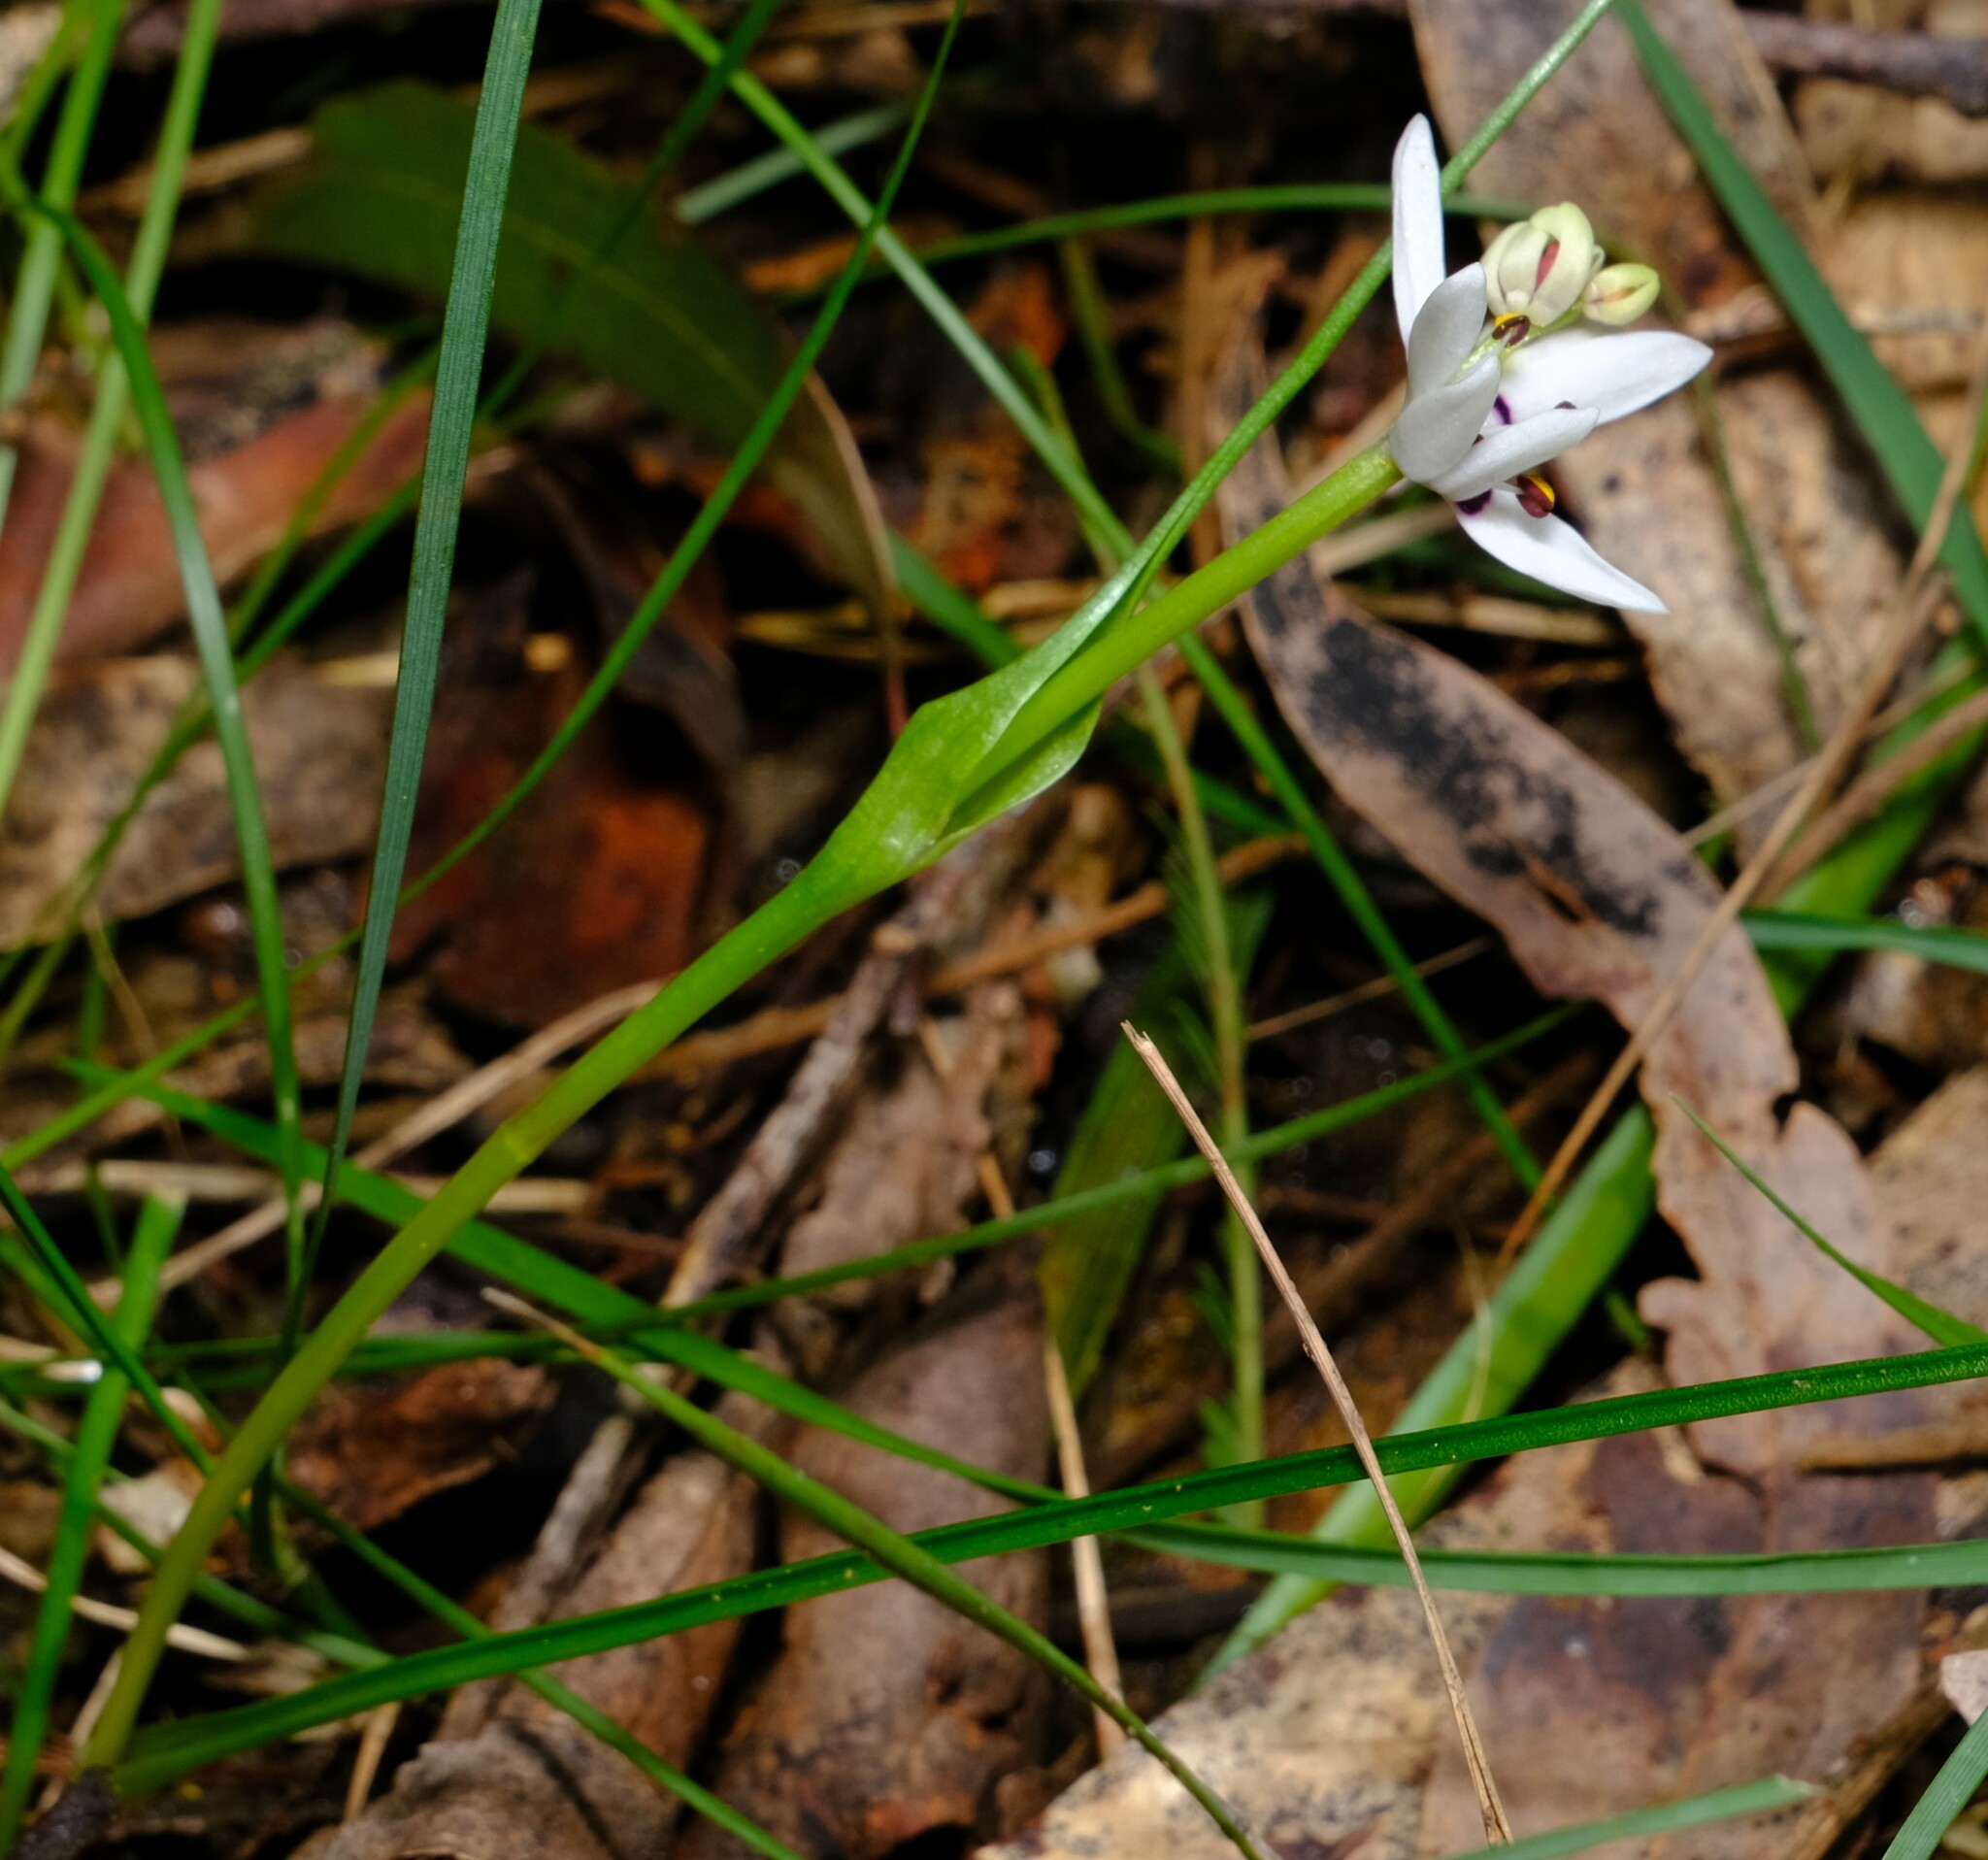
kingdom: Plantae
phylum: Tracheophyta
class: Liliopsida
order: Liliales
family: Colchicaceae
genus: Wurmbea
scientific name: Wurmbea dioica
